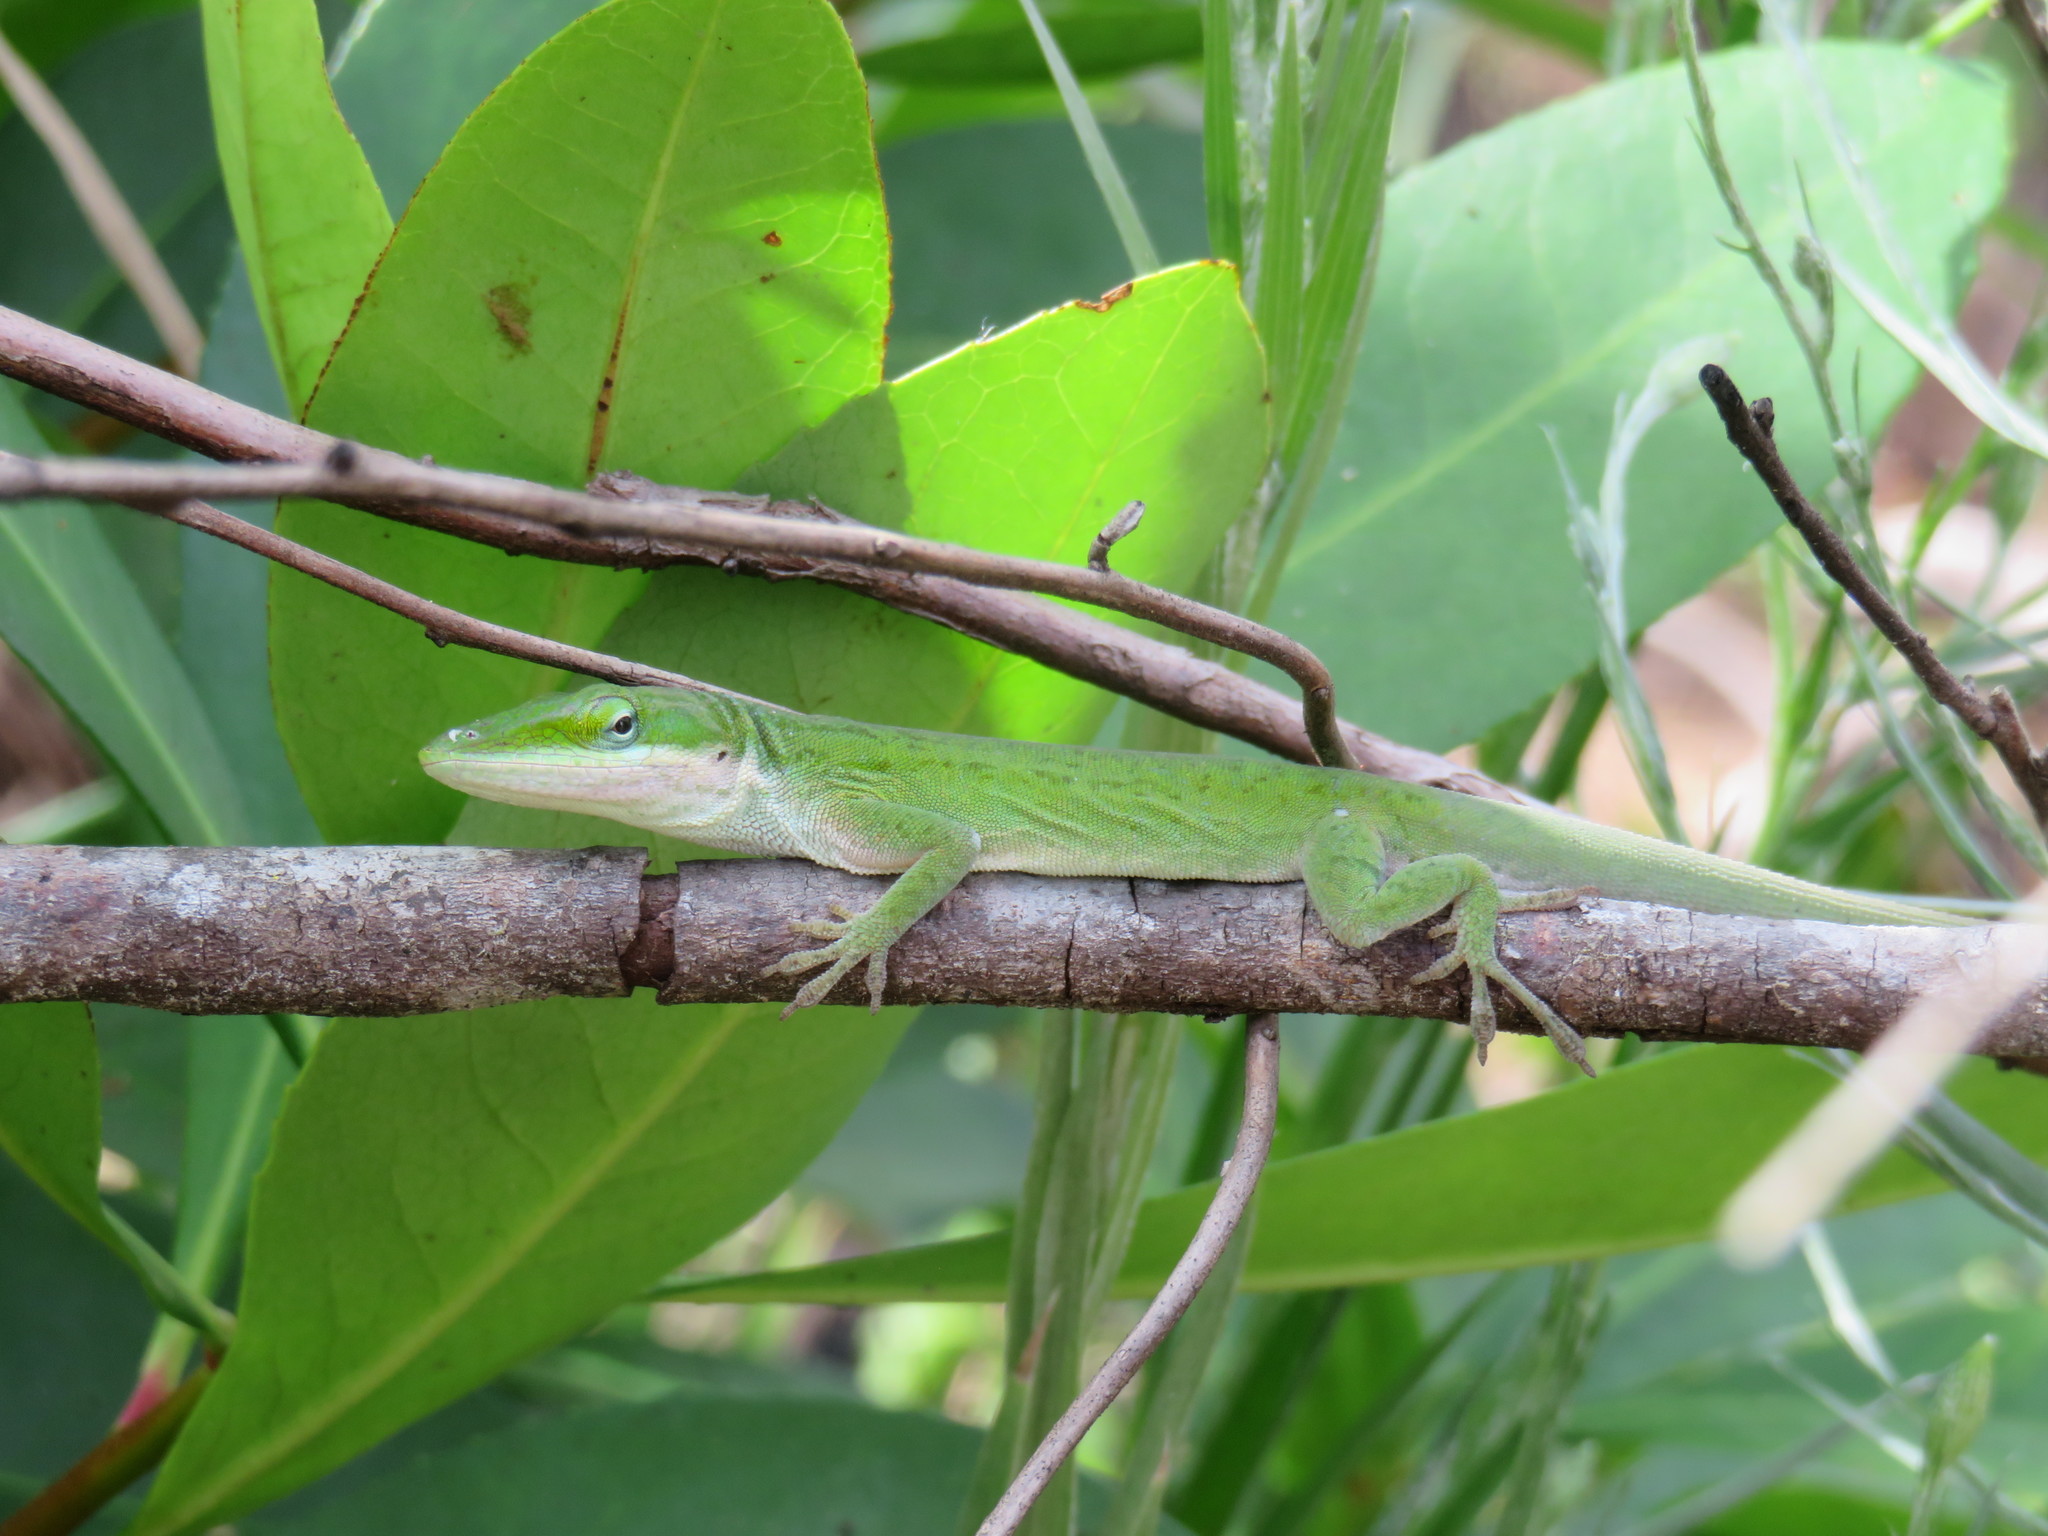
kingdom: Animalia
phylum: Chordata
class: Squamata
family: Dactyloidae
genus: Anolis
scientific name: Anolis carolinensis
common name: Green anole
